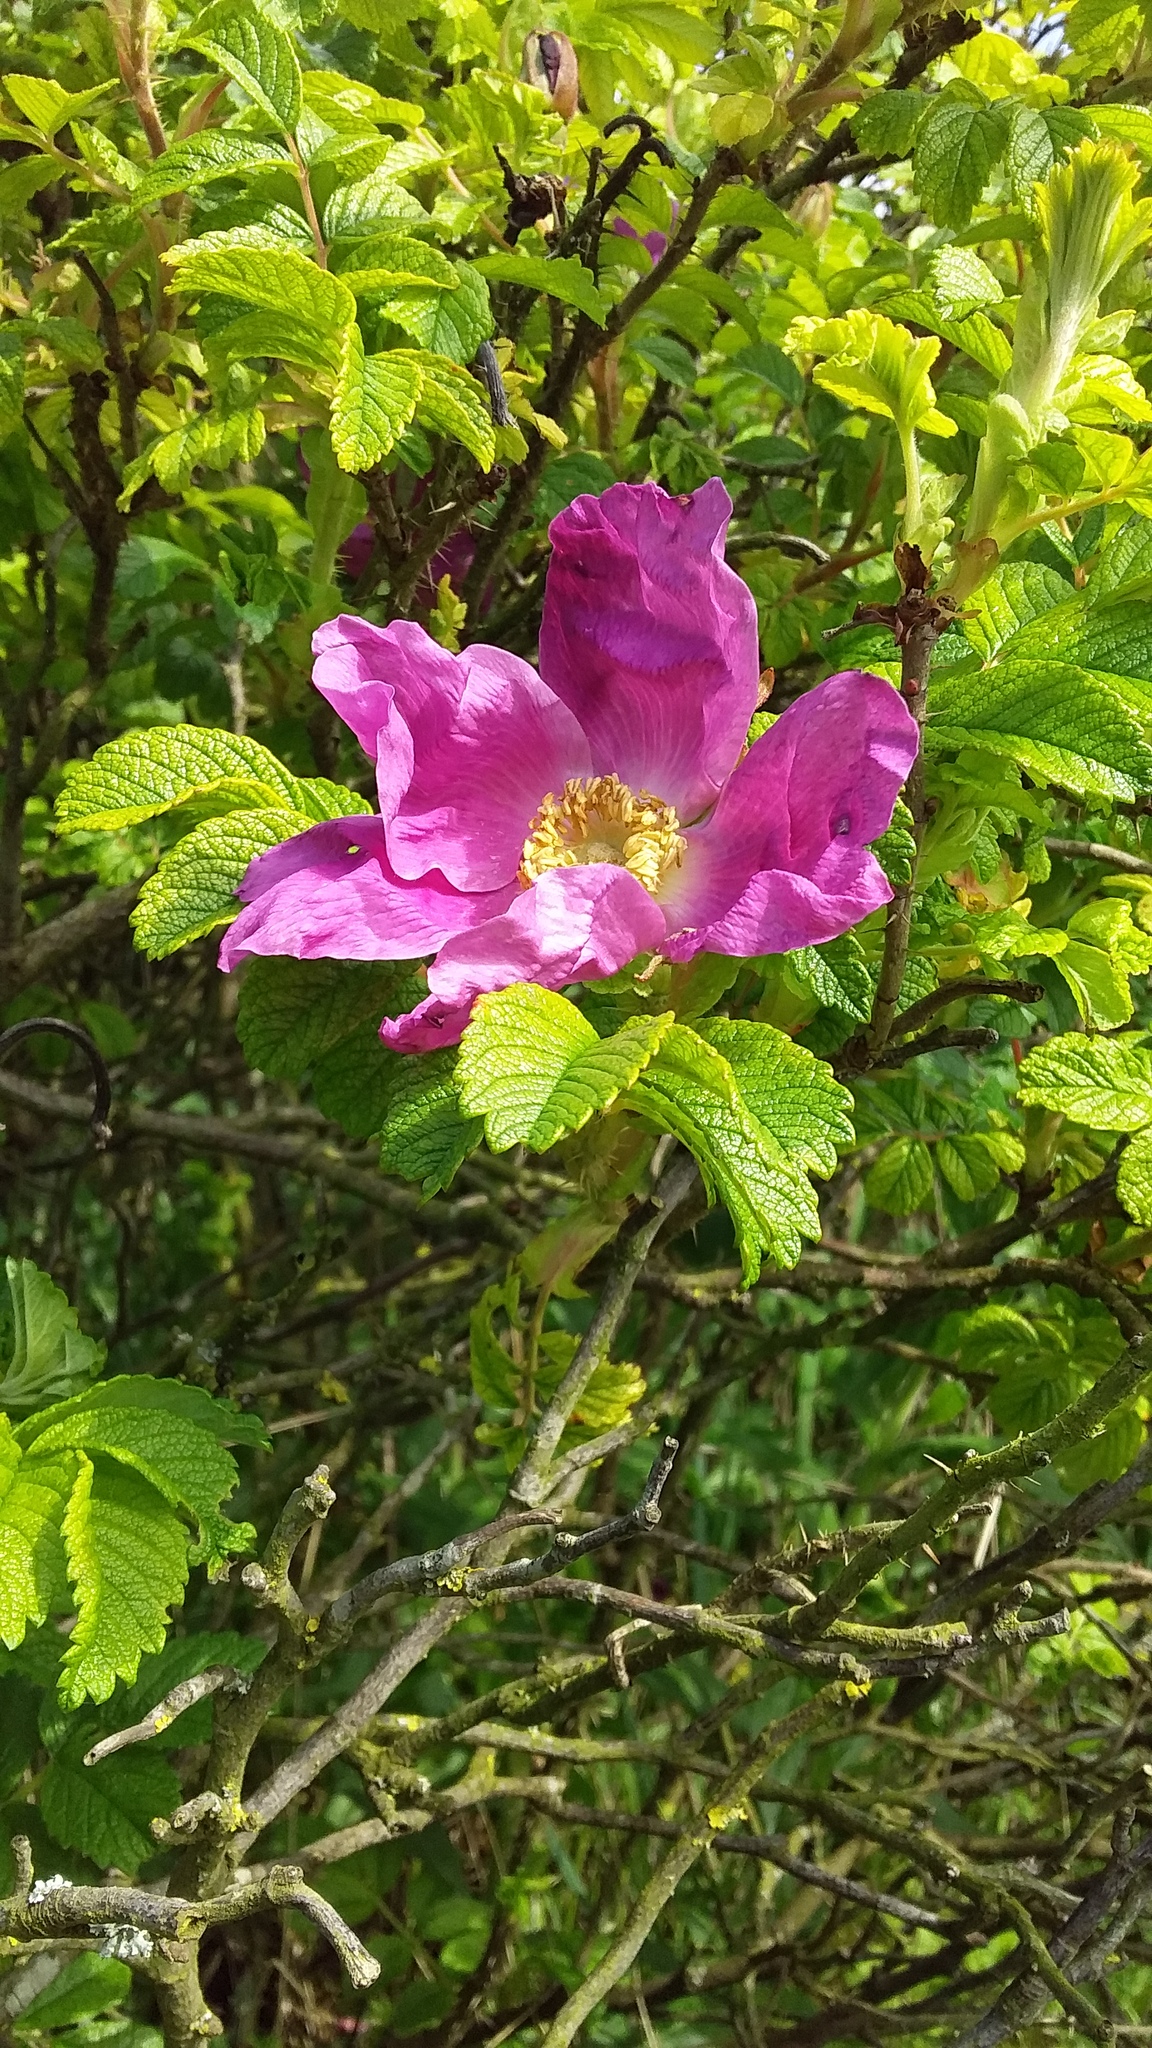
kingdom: Plantae
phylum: Tracheophyta
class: Magnoliopsida
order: Rosales
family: Rosaceae
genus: Rosa
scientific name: Rosa rugosa
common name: Japanese rose
